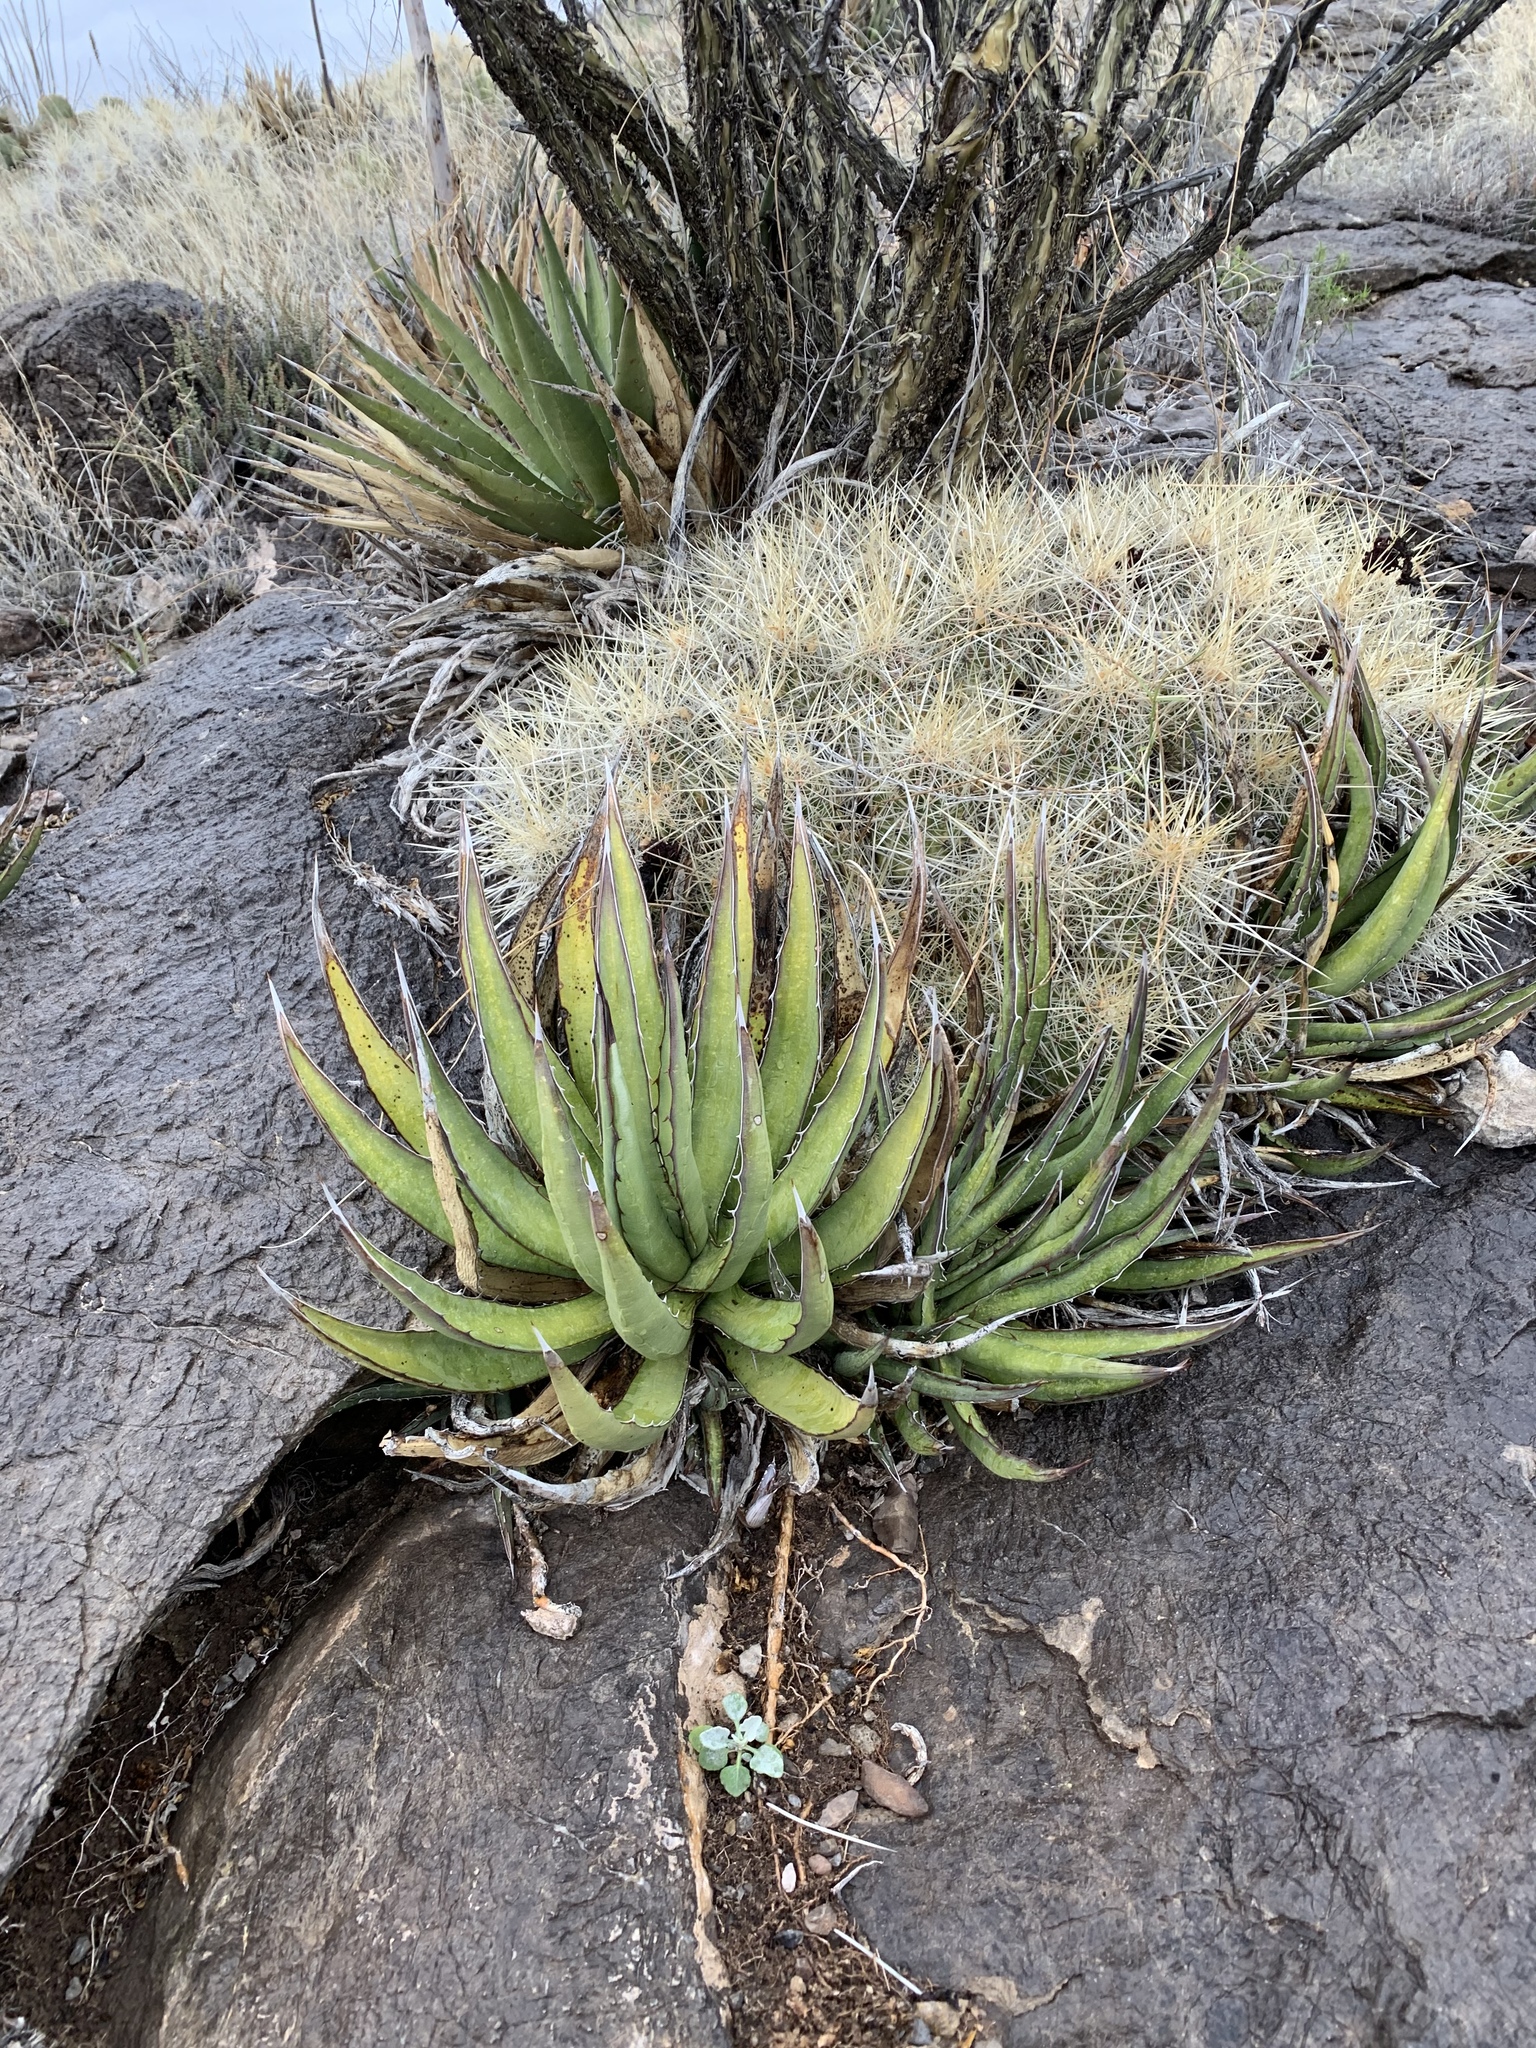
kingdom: Plantae
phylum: Tracheophyta
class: Liliopsida
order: Asparagales
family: Asparagaceae
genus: Agave
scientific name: Agave lechuguilla
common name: Lecheguilla agave
